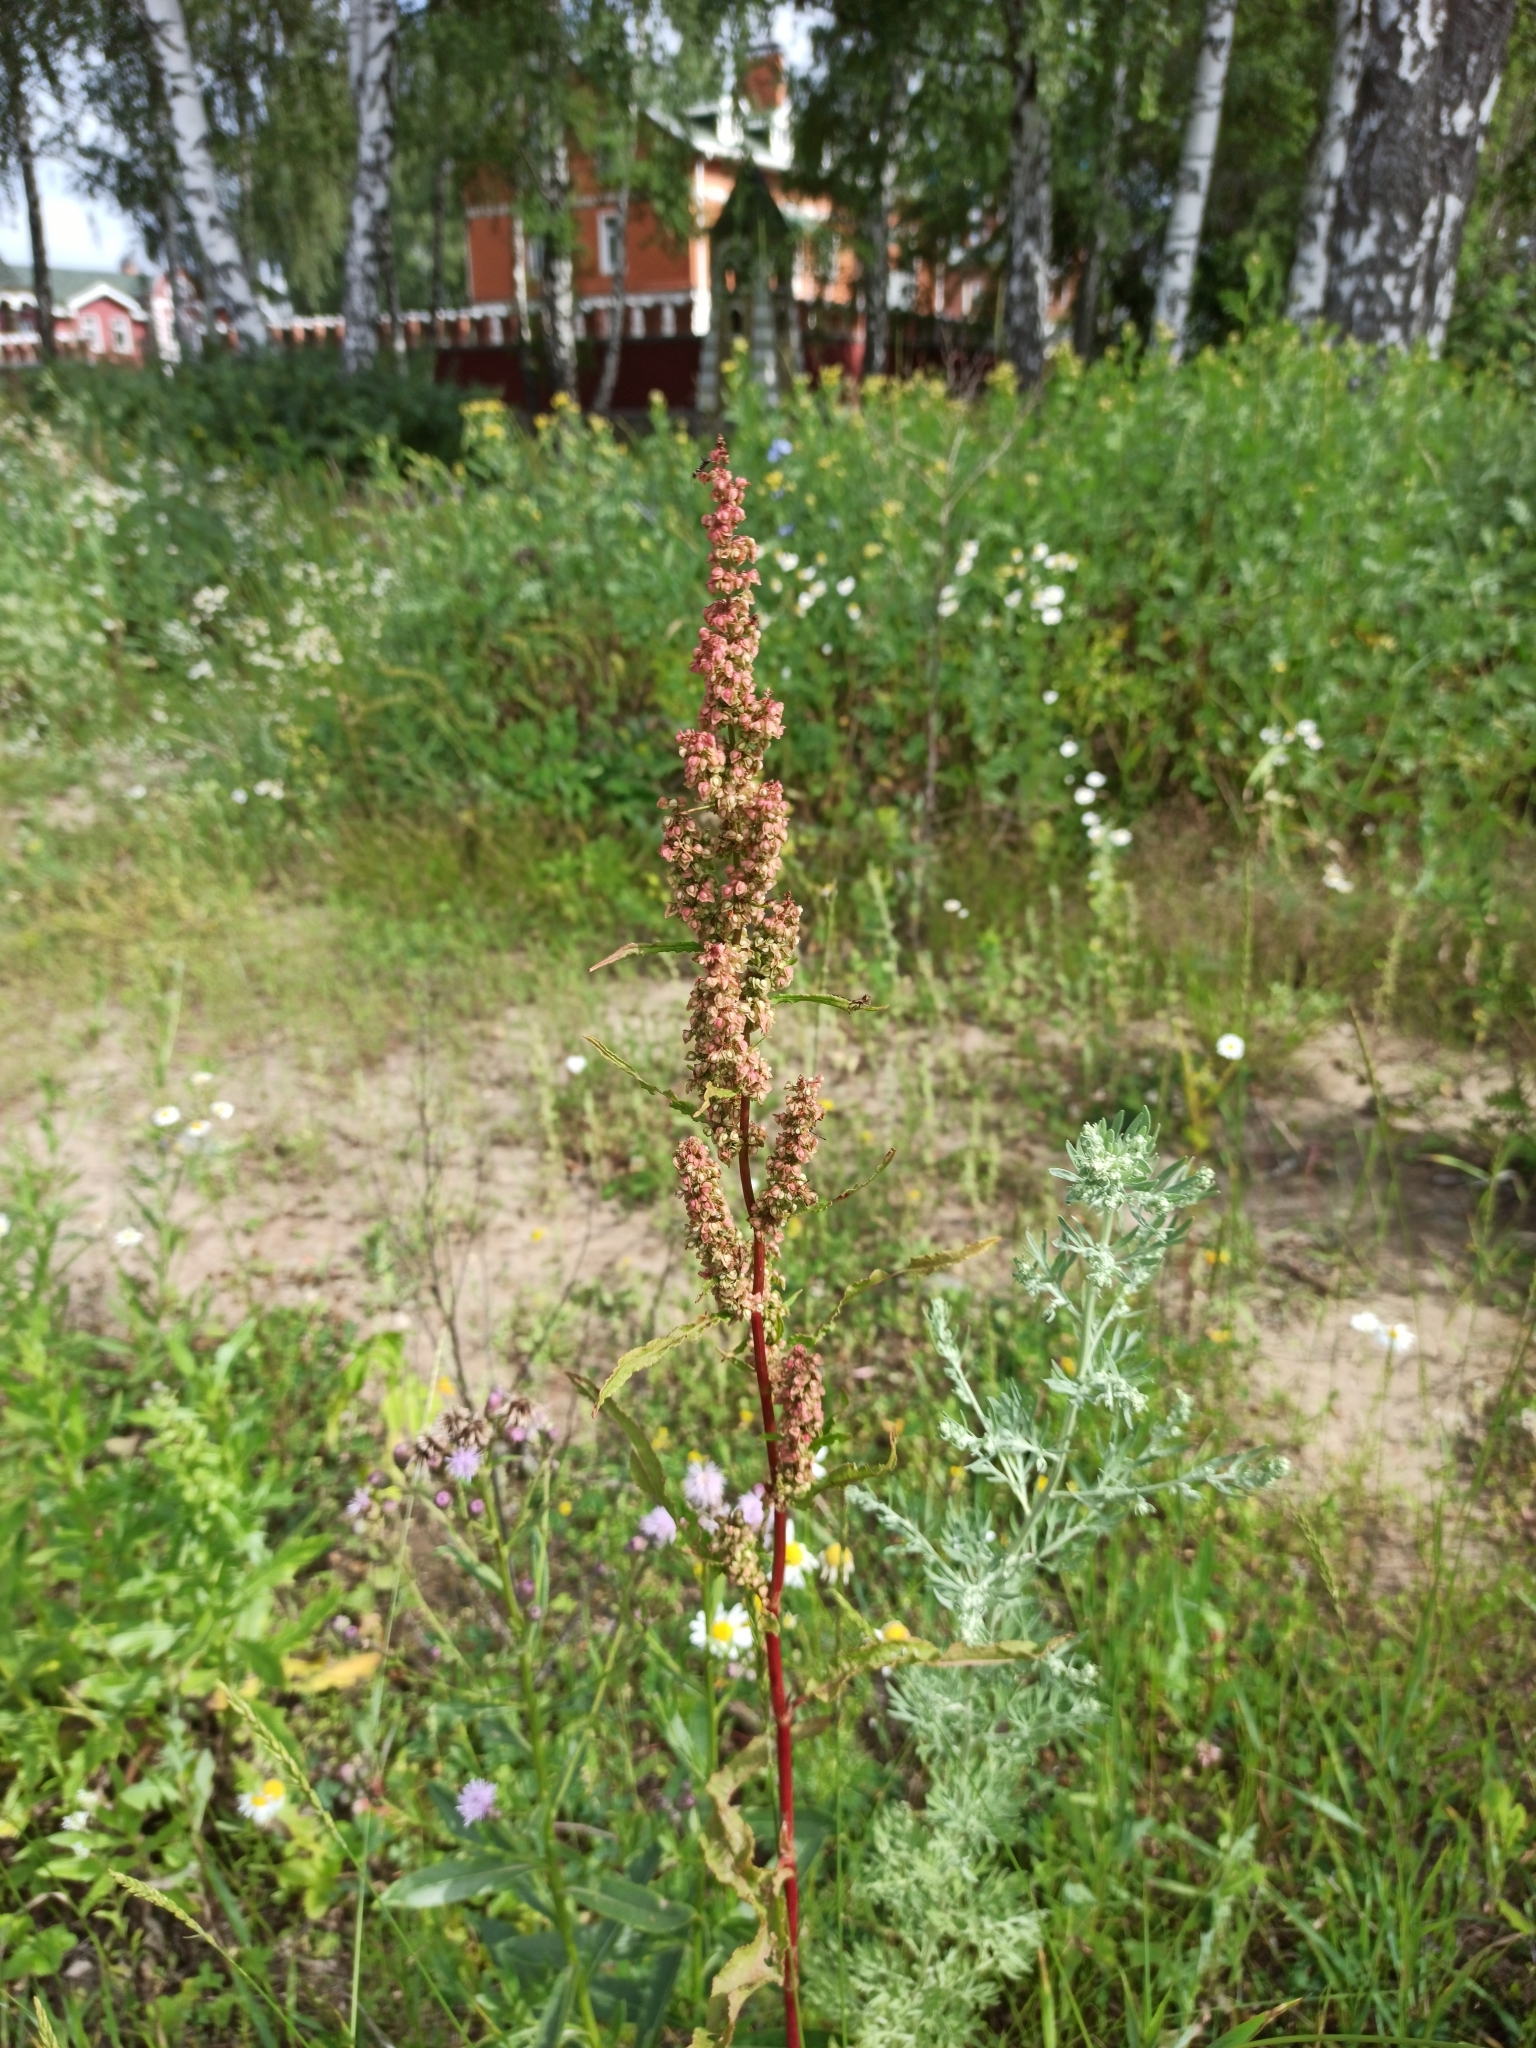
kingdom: Plantae
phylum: Tracheophyta
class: Magnoliopsida
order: Caryophyllales
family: Polygonaceae
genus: Rumex
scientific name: Rumex crispus
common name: Curled dock
